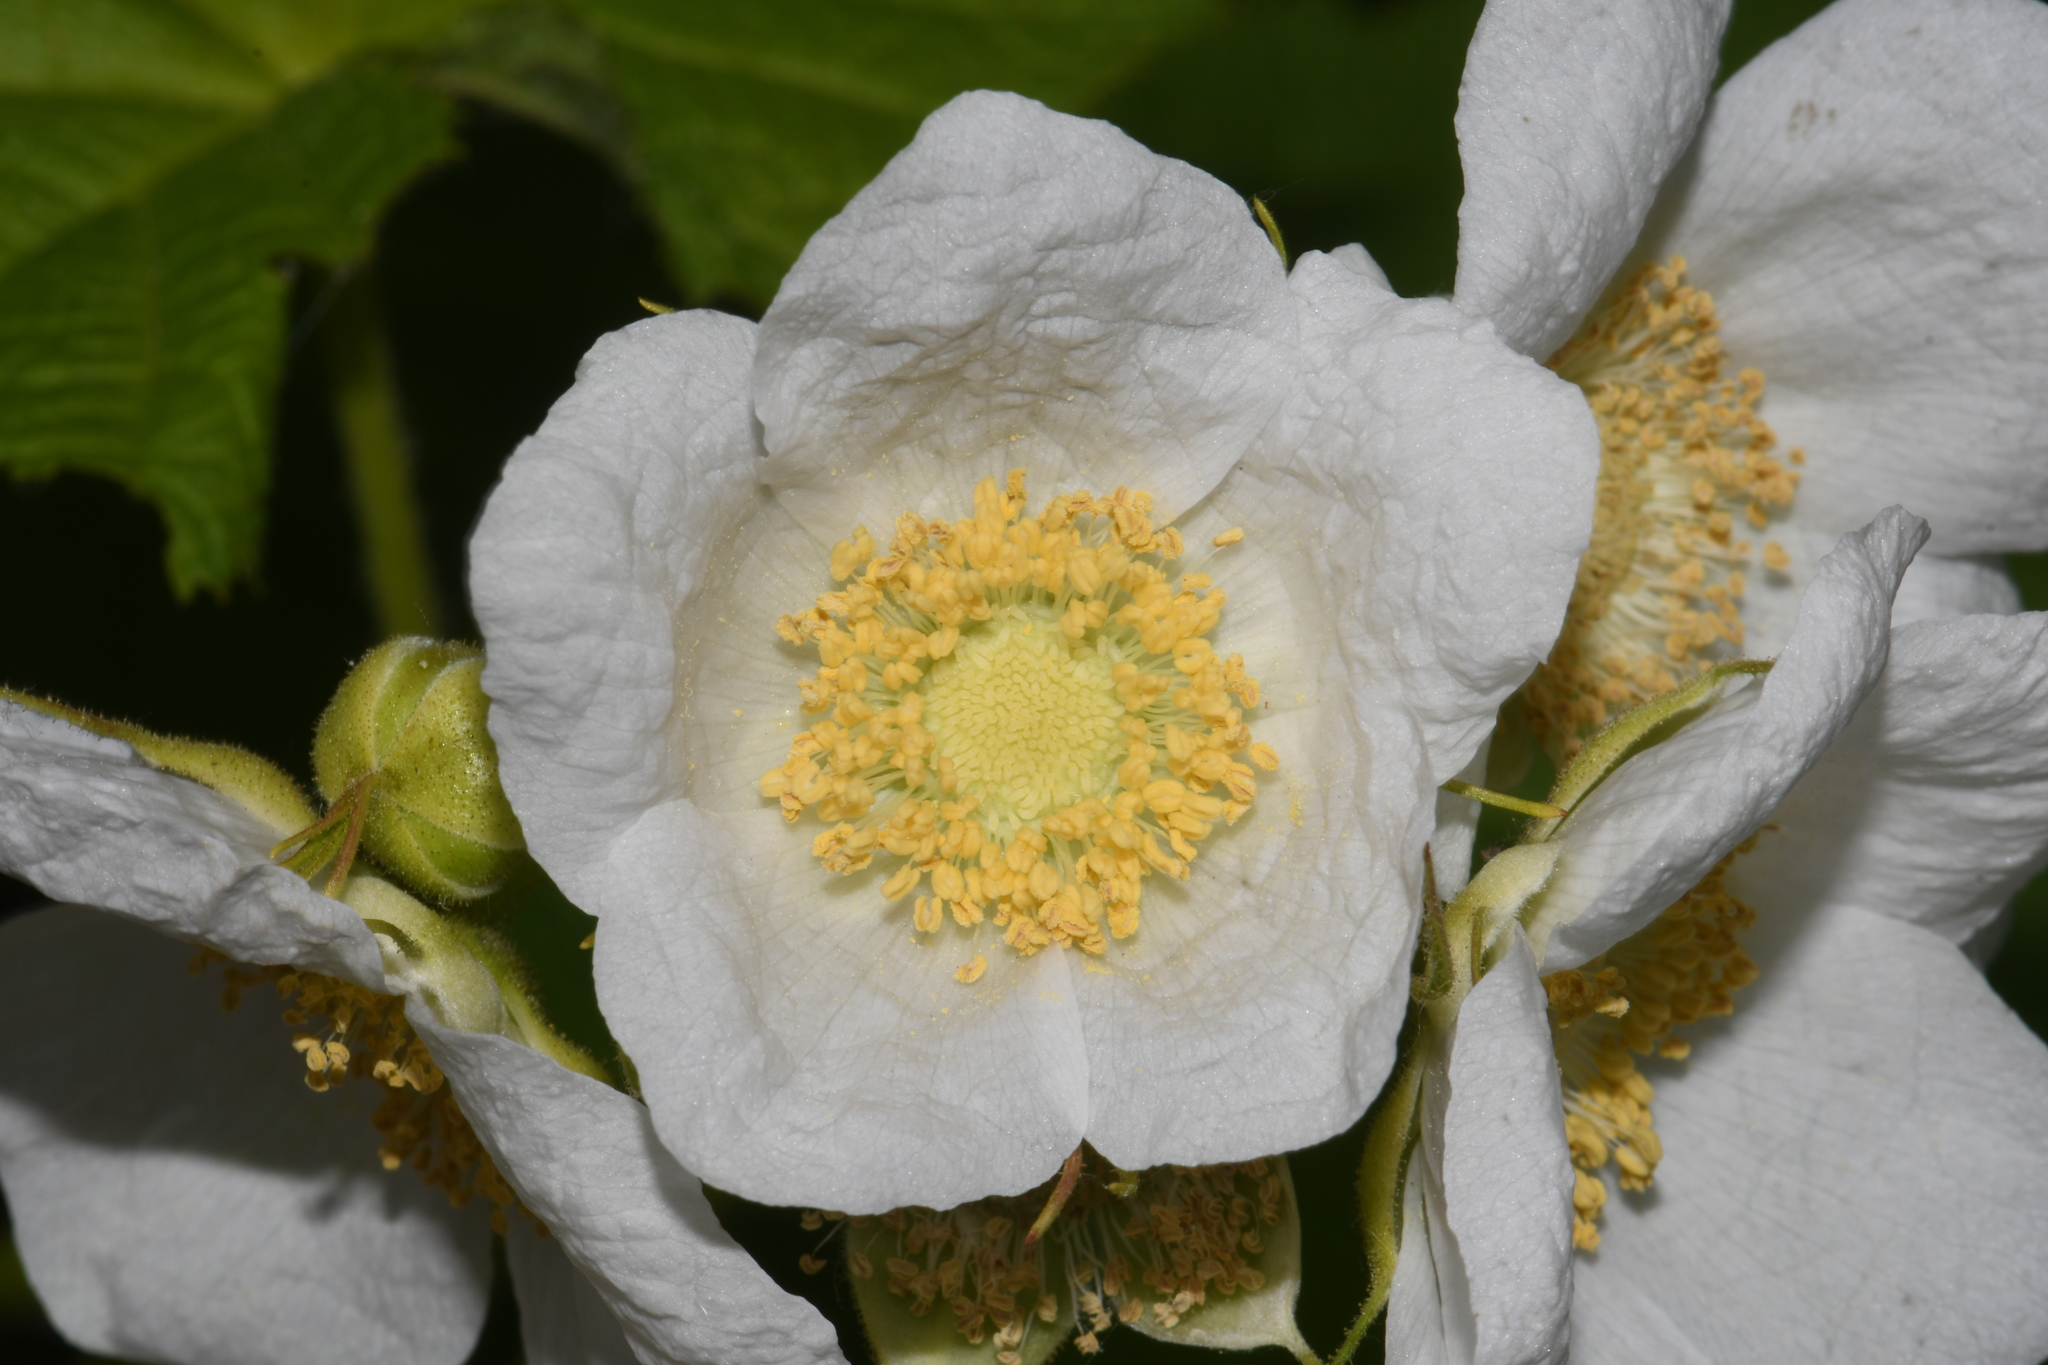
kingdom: Plantae
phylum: Tracheophyta
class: Magnoliopsida
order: Rosales
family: Rosaceae
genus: Rubus
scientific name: Rubus parviflorus
